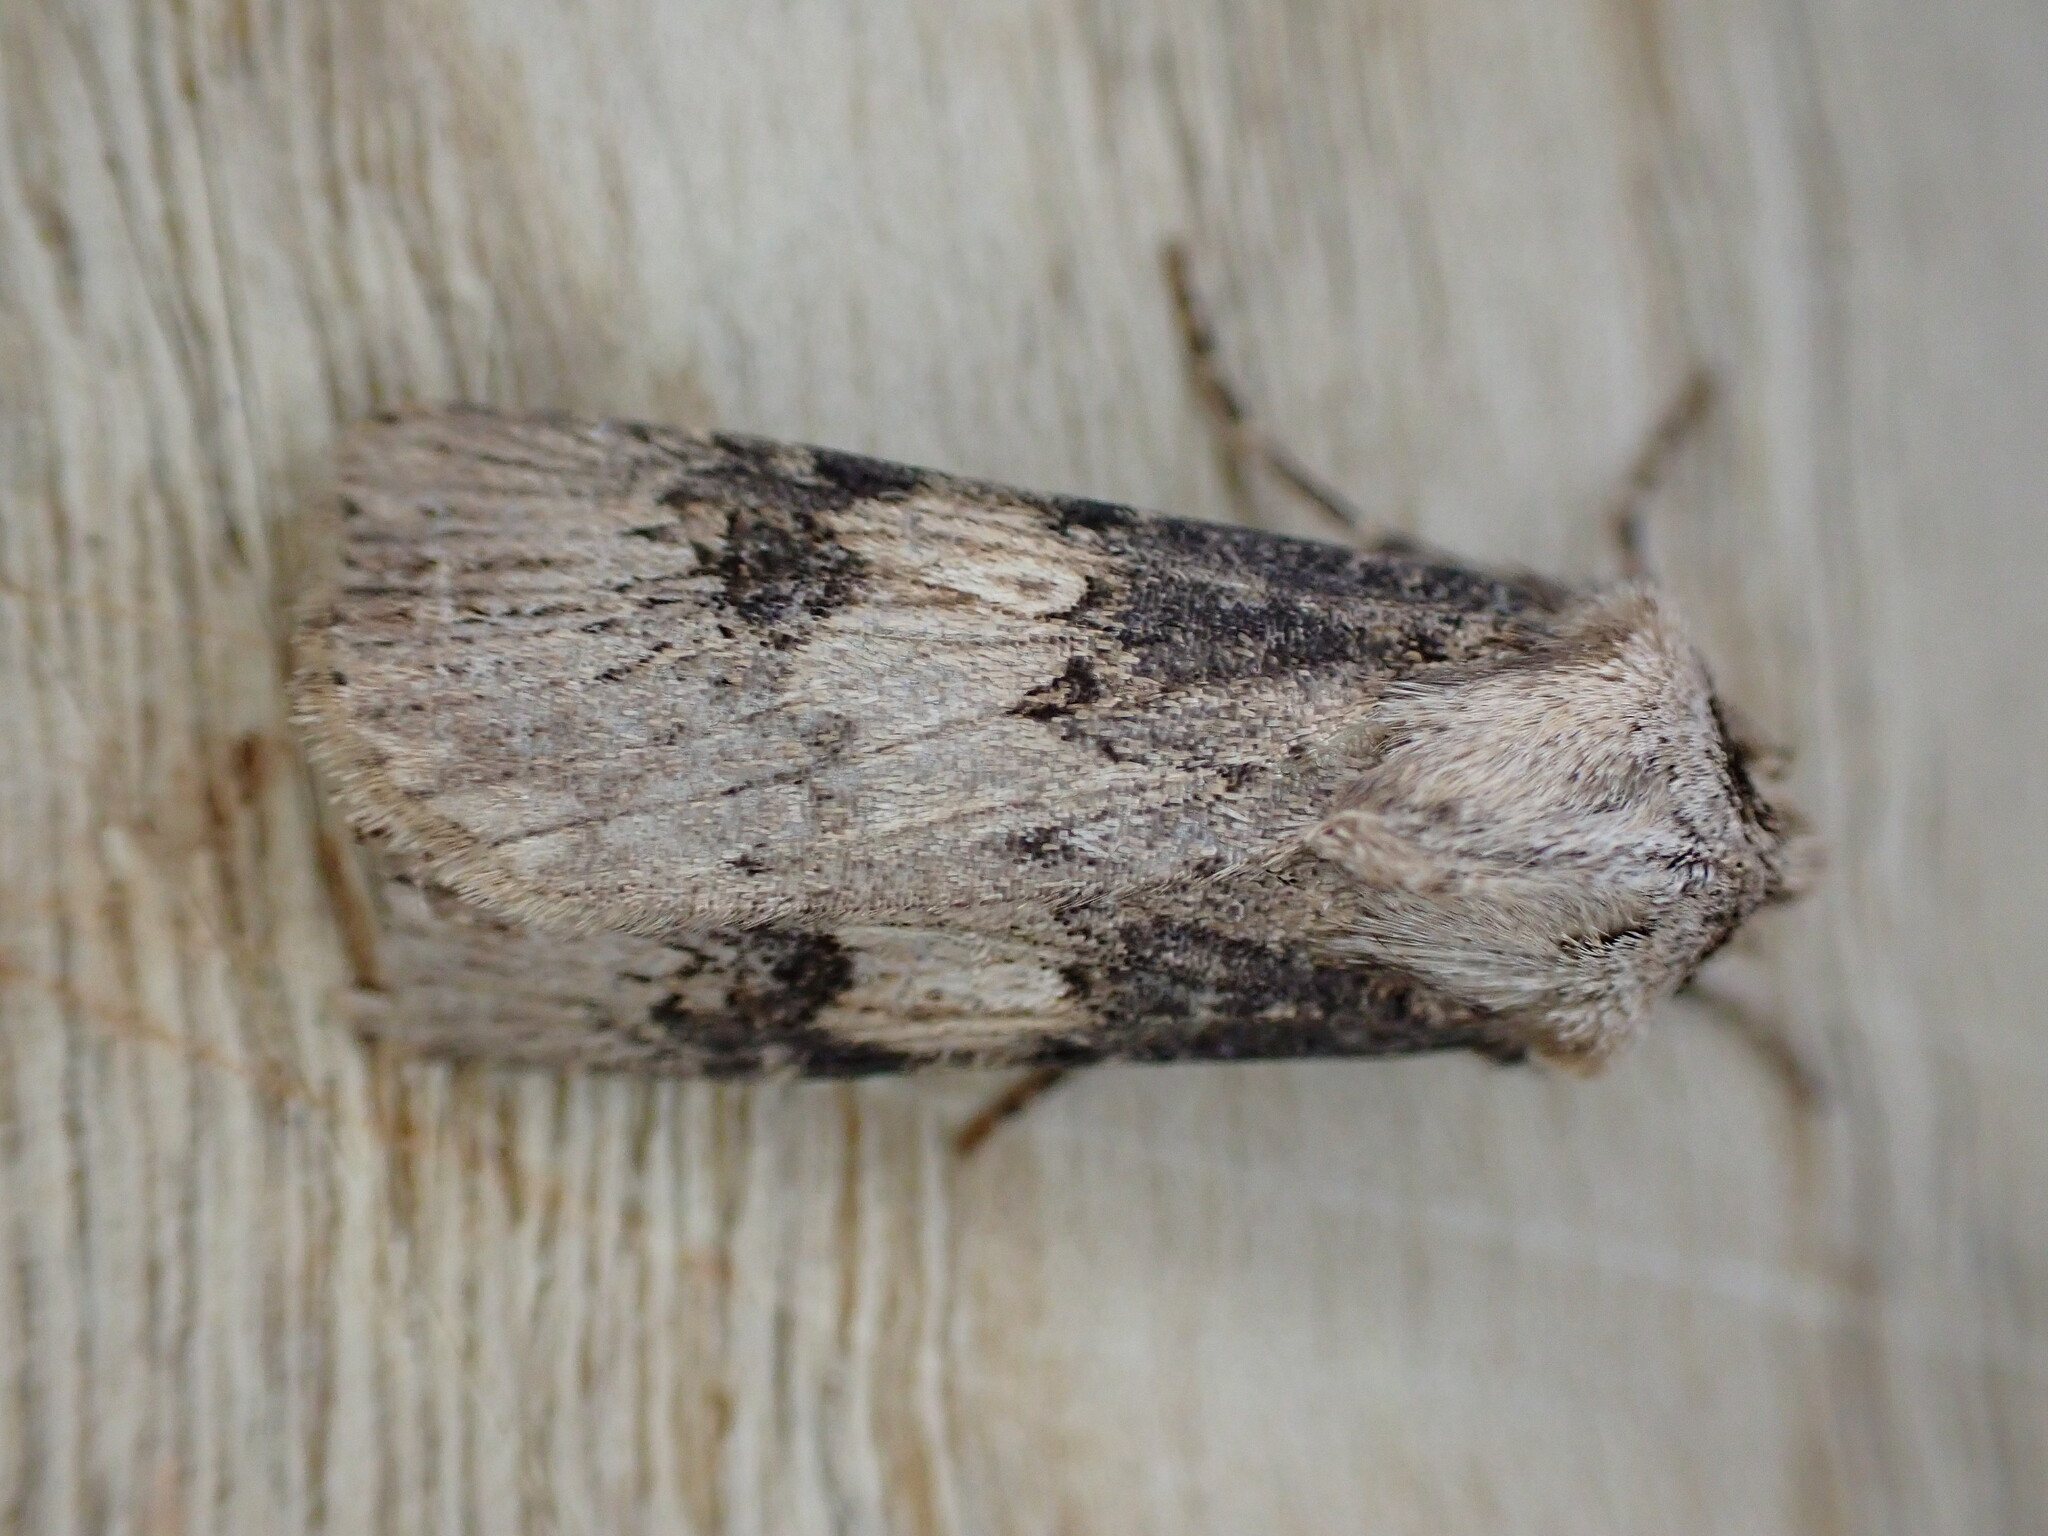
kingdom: Animalia
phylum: Arthropoda
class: Insecta
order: Lepidoptera
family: Noctuidae
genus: Agrotis
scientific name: Agrotis puta
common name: Shuttle-shaped dart
